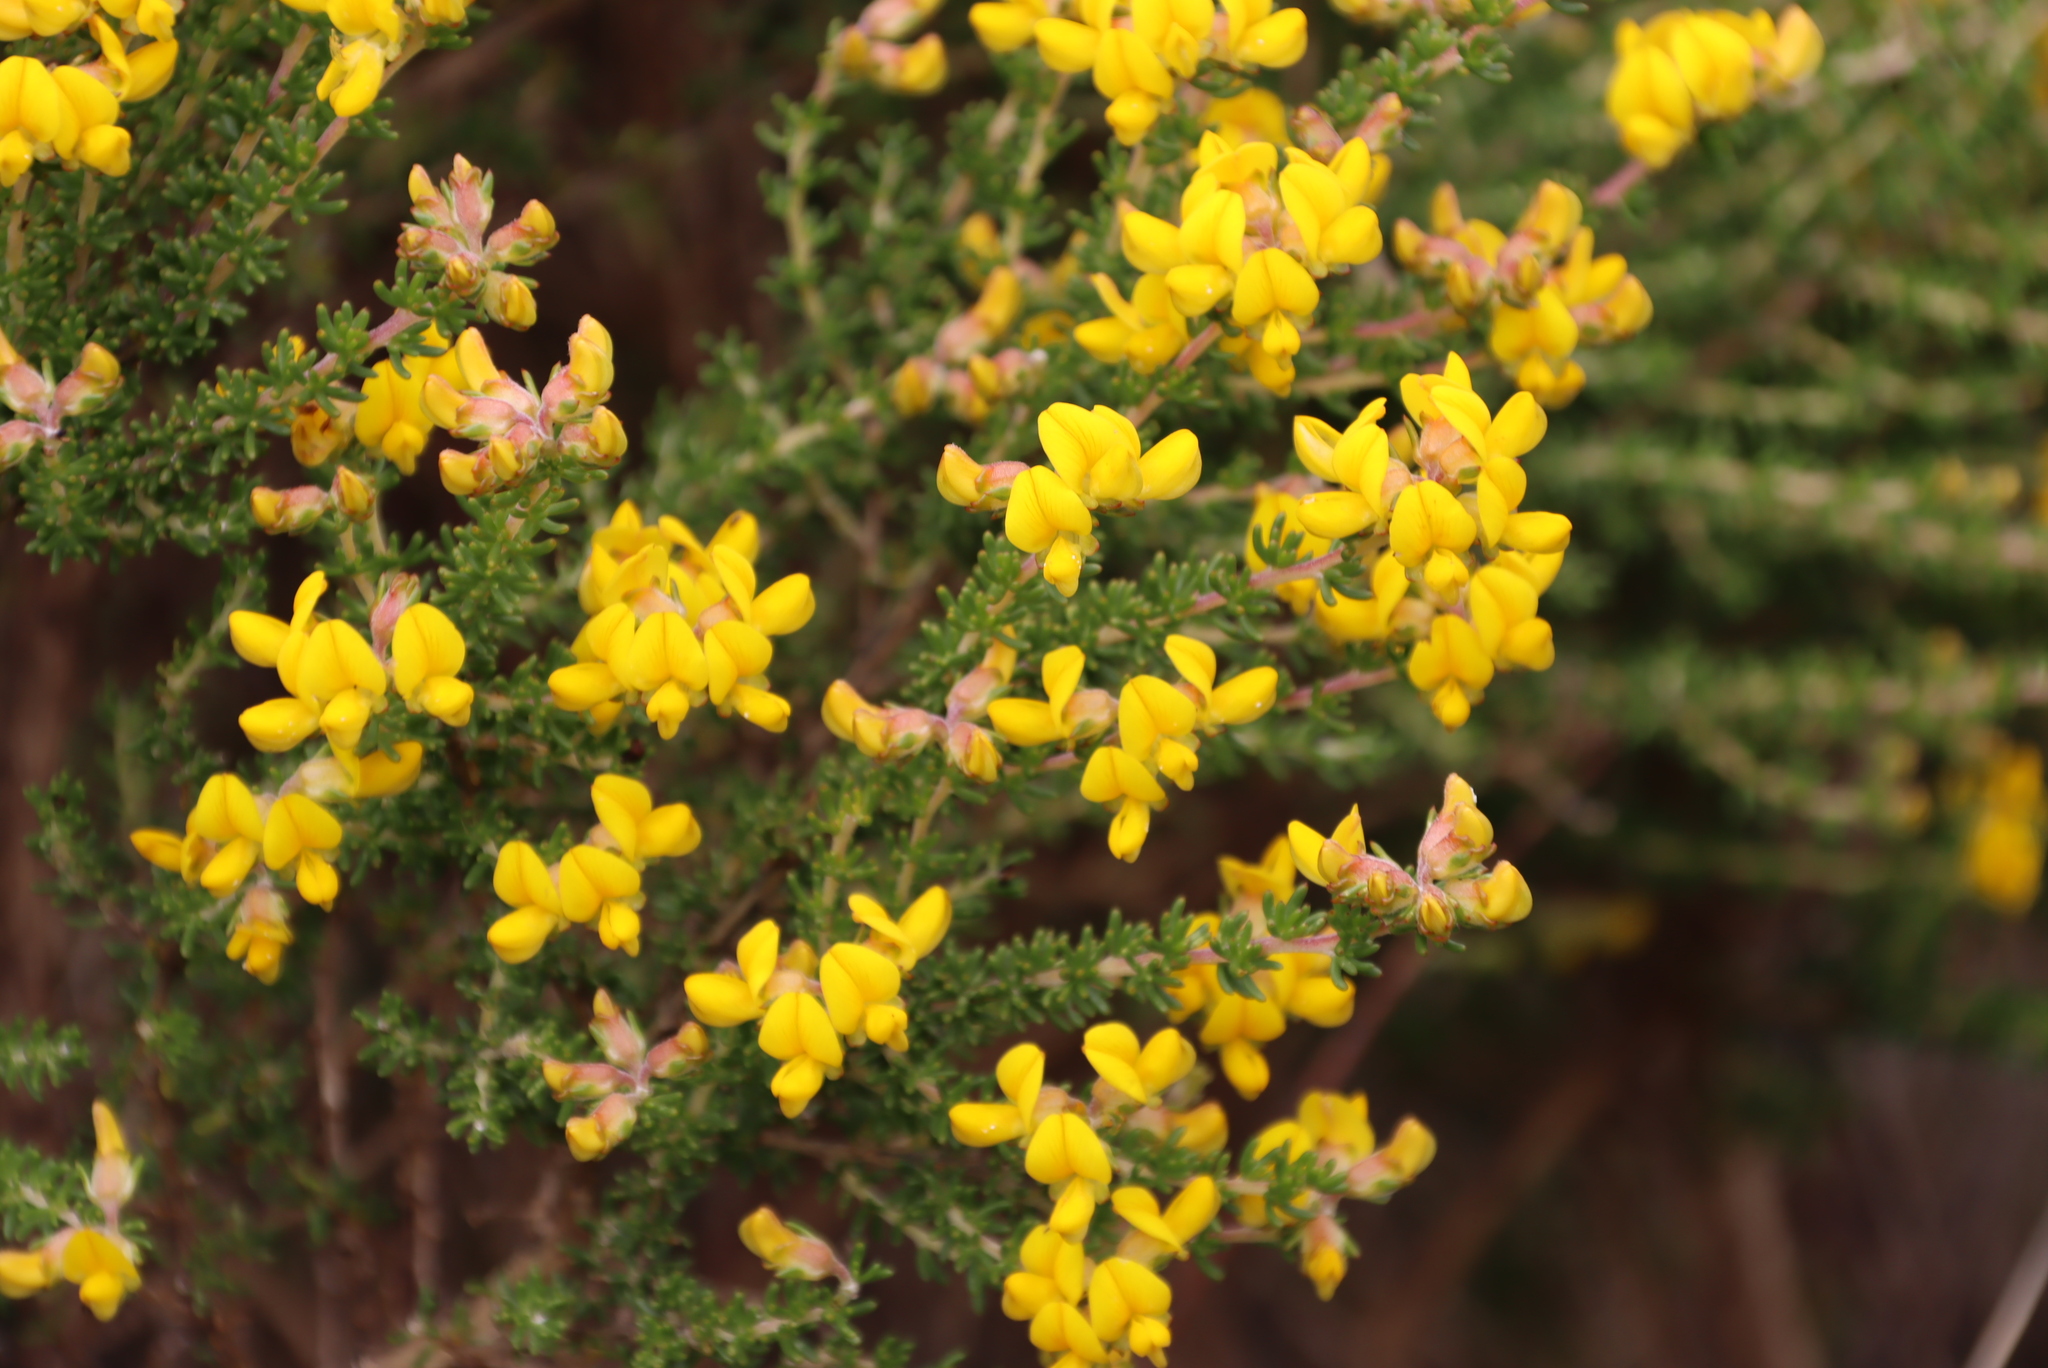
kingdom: Plantae
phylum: Tracheophyta
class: Magnoliopsida
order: Fabales
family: Fabaceae
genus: Aspalathus
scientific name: Aspalathus carnosa
